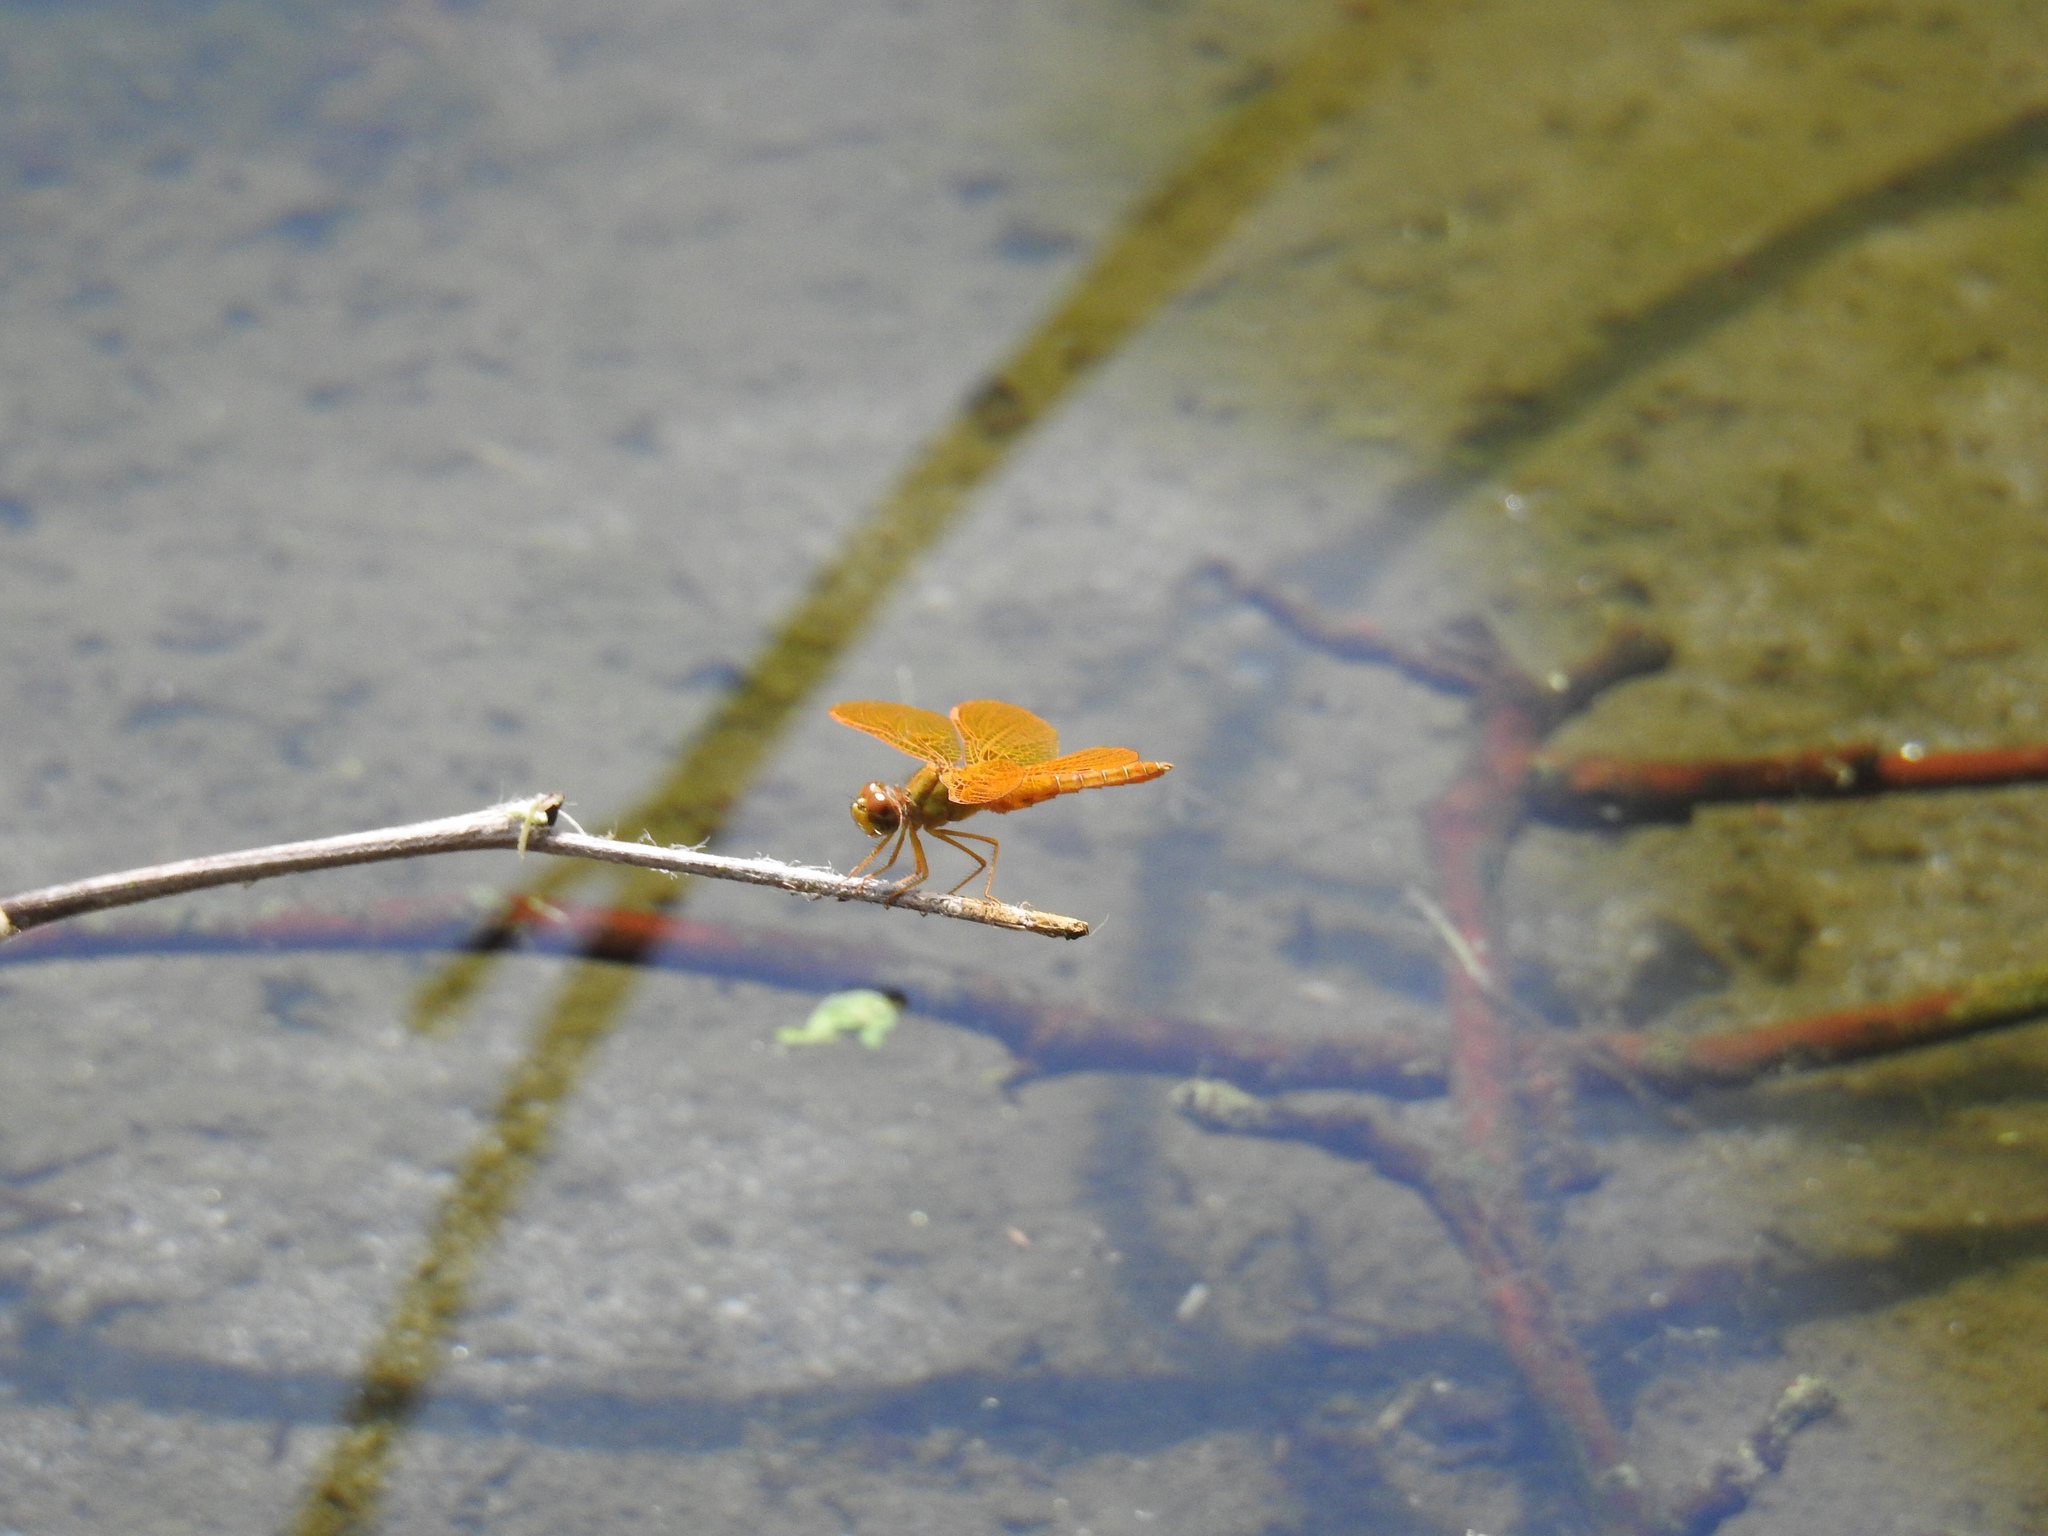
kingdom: Animalia
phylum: Arthropoda
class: Insecta
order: Odonata
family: Libellulidae
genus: Perithemis
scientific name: Perithemis intensa
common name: Mexican amberwing
